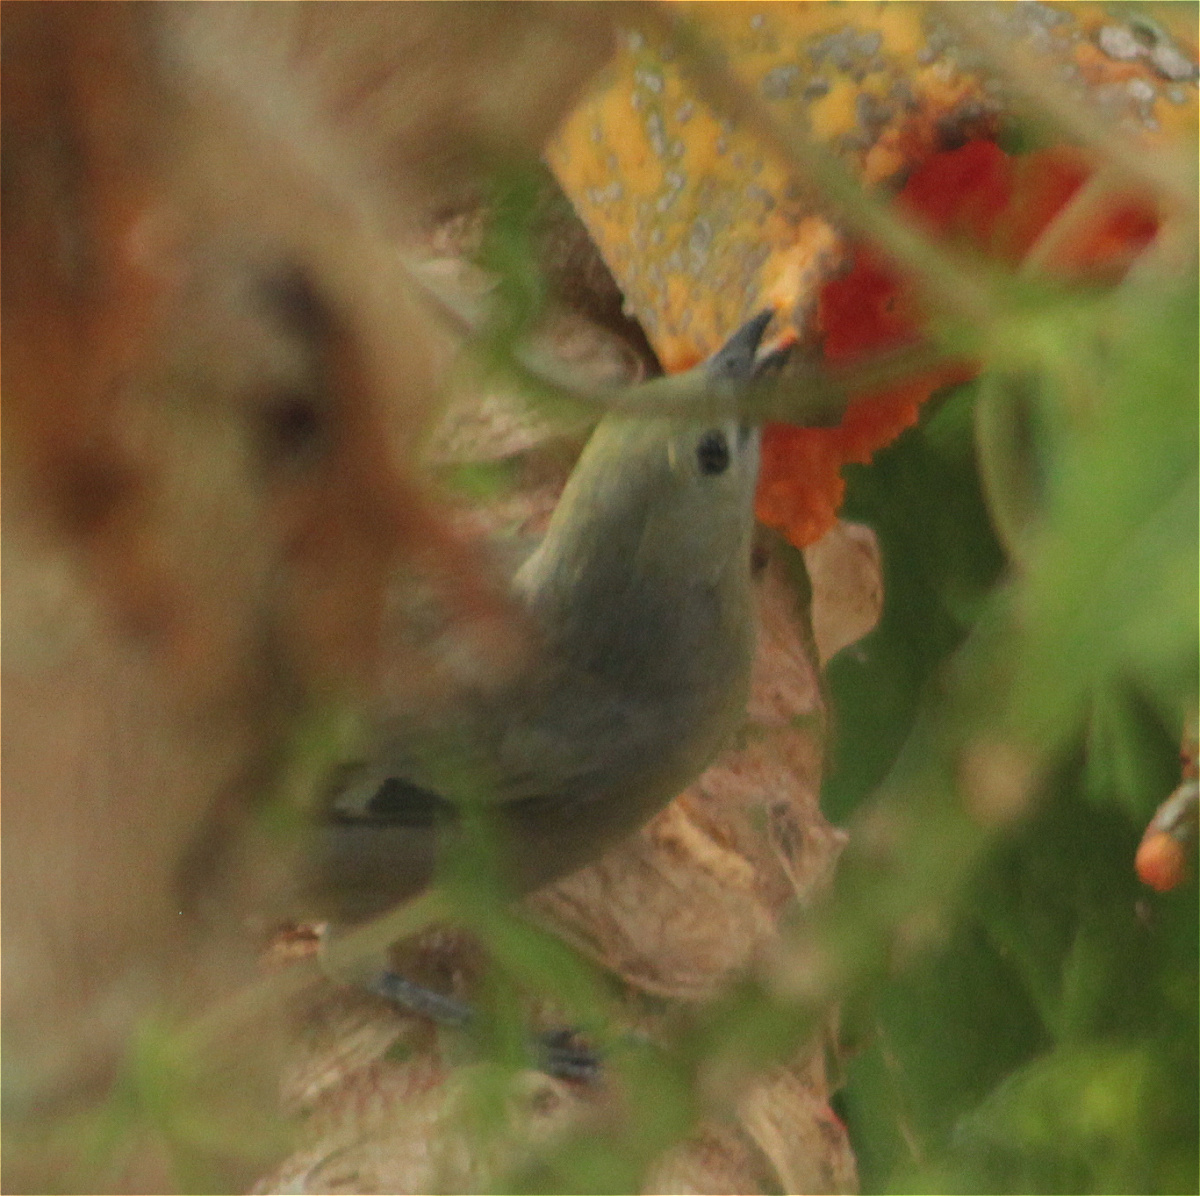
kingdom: Animalia
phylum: Chordata
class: Aves
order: Passeriformes
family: Thraupidae
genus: Thraupis
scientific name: Thraupis palmarum
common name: Palm tanager
